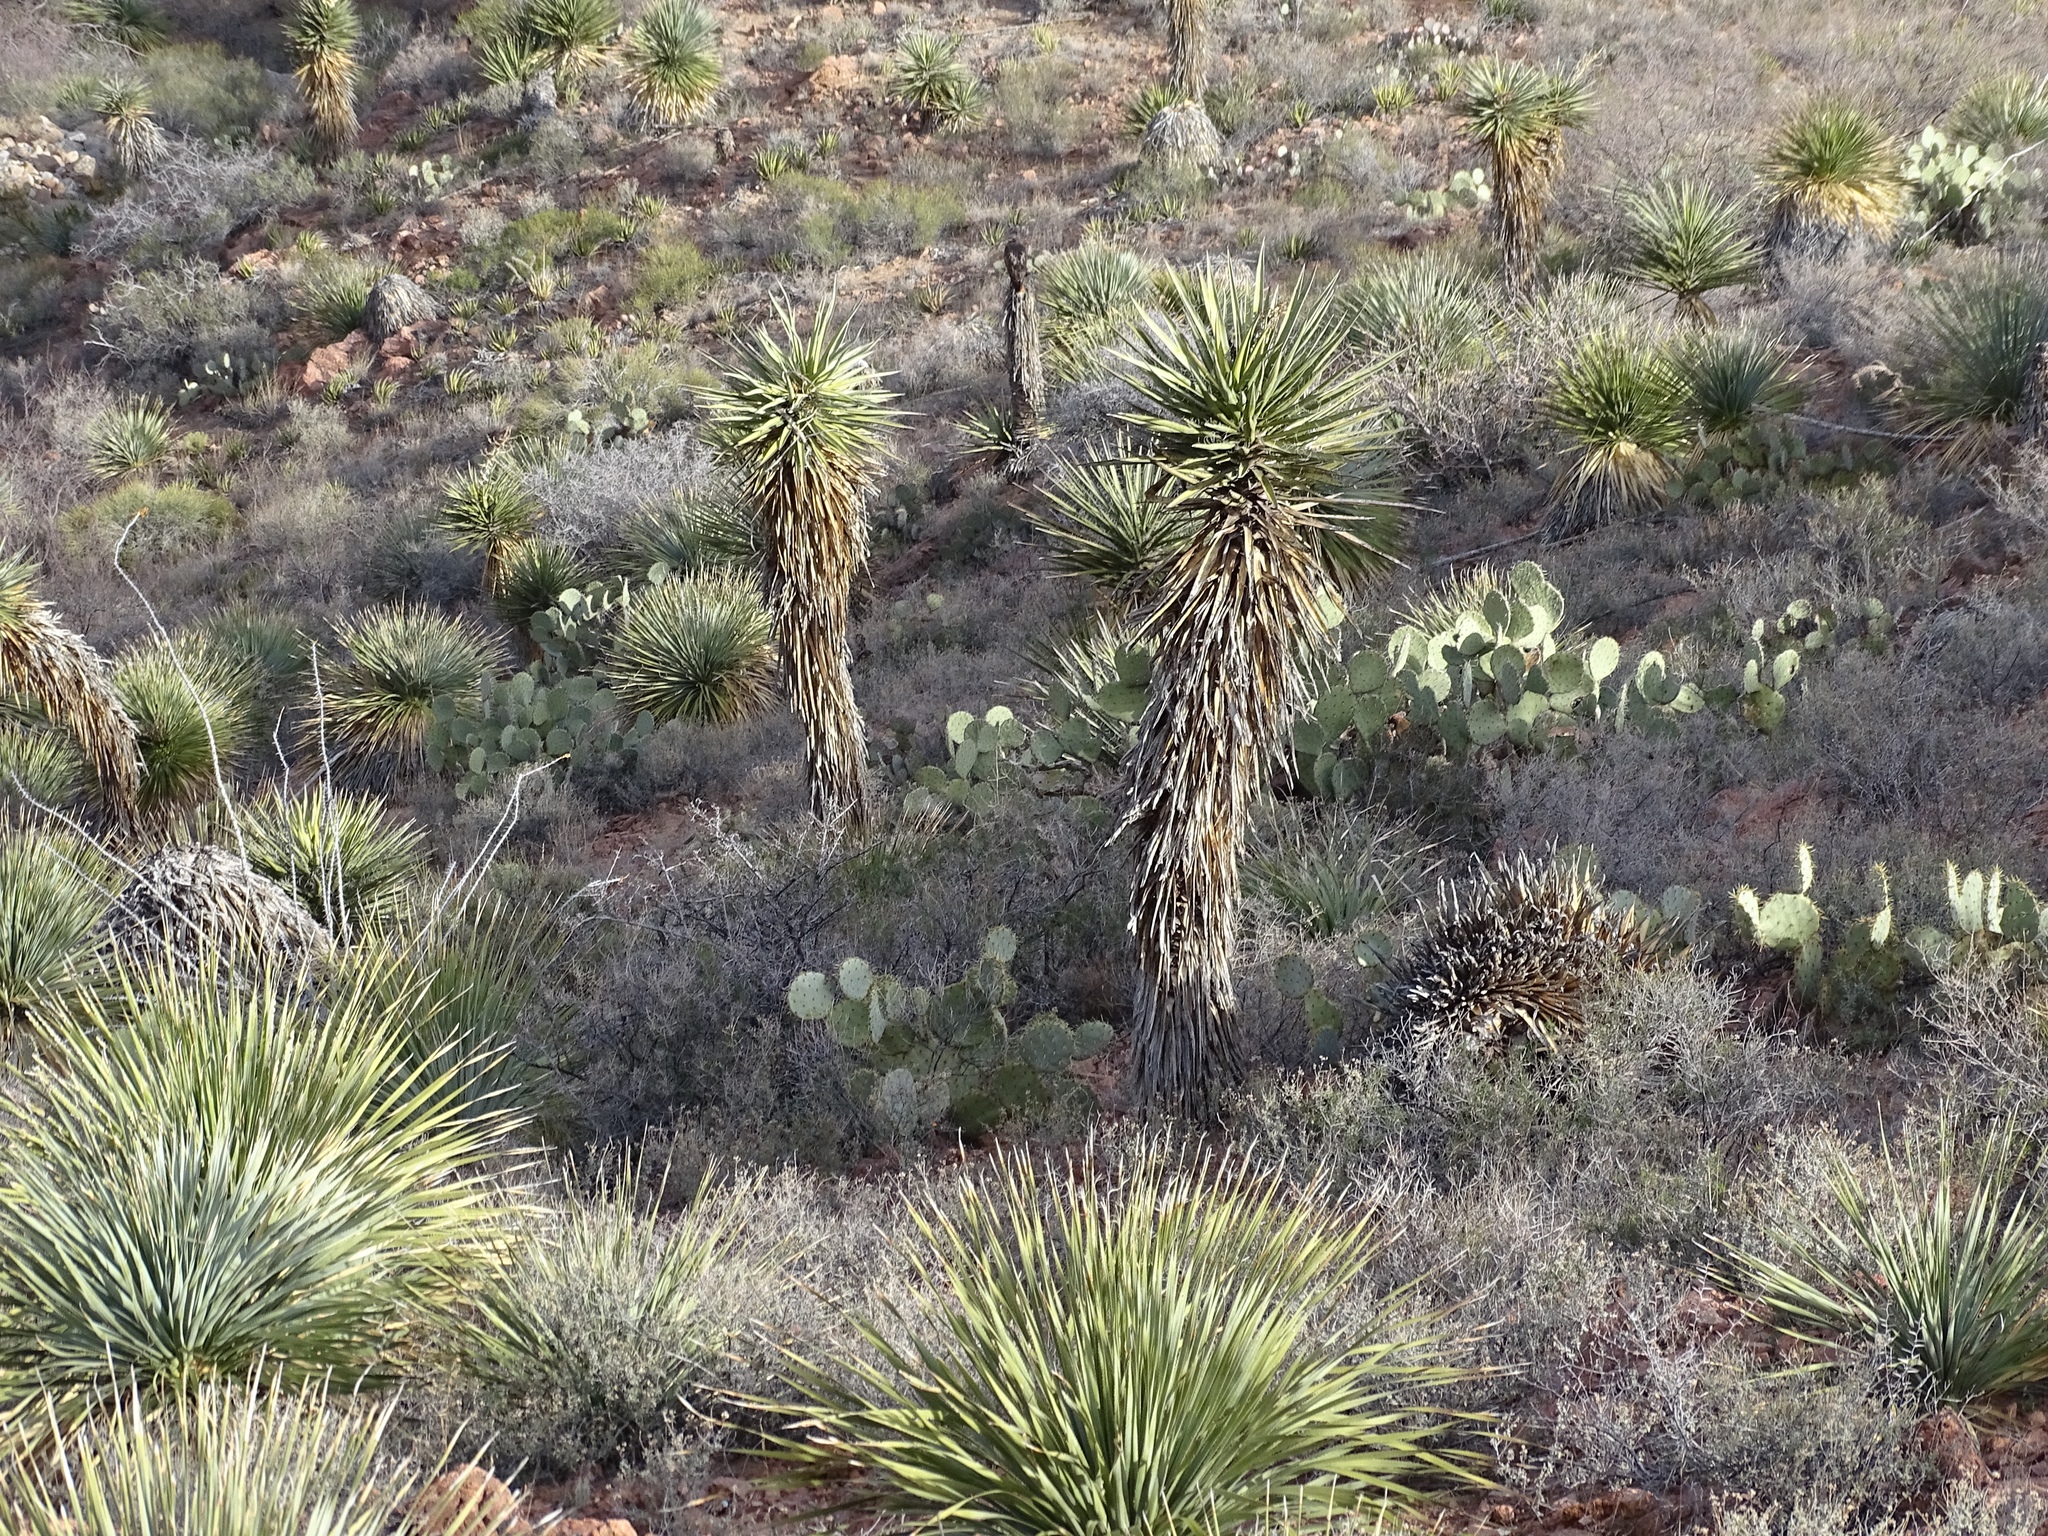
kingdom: Plantae
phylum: Tracheophyta
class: Liliopsida
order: Asparagales
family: Asparagaceae
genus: Yucca
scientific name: Yucca treculiana
